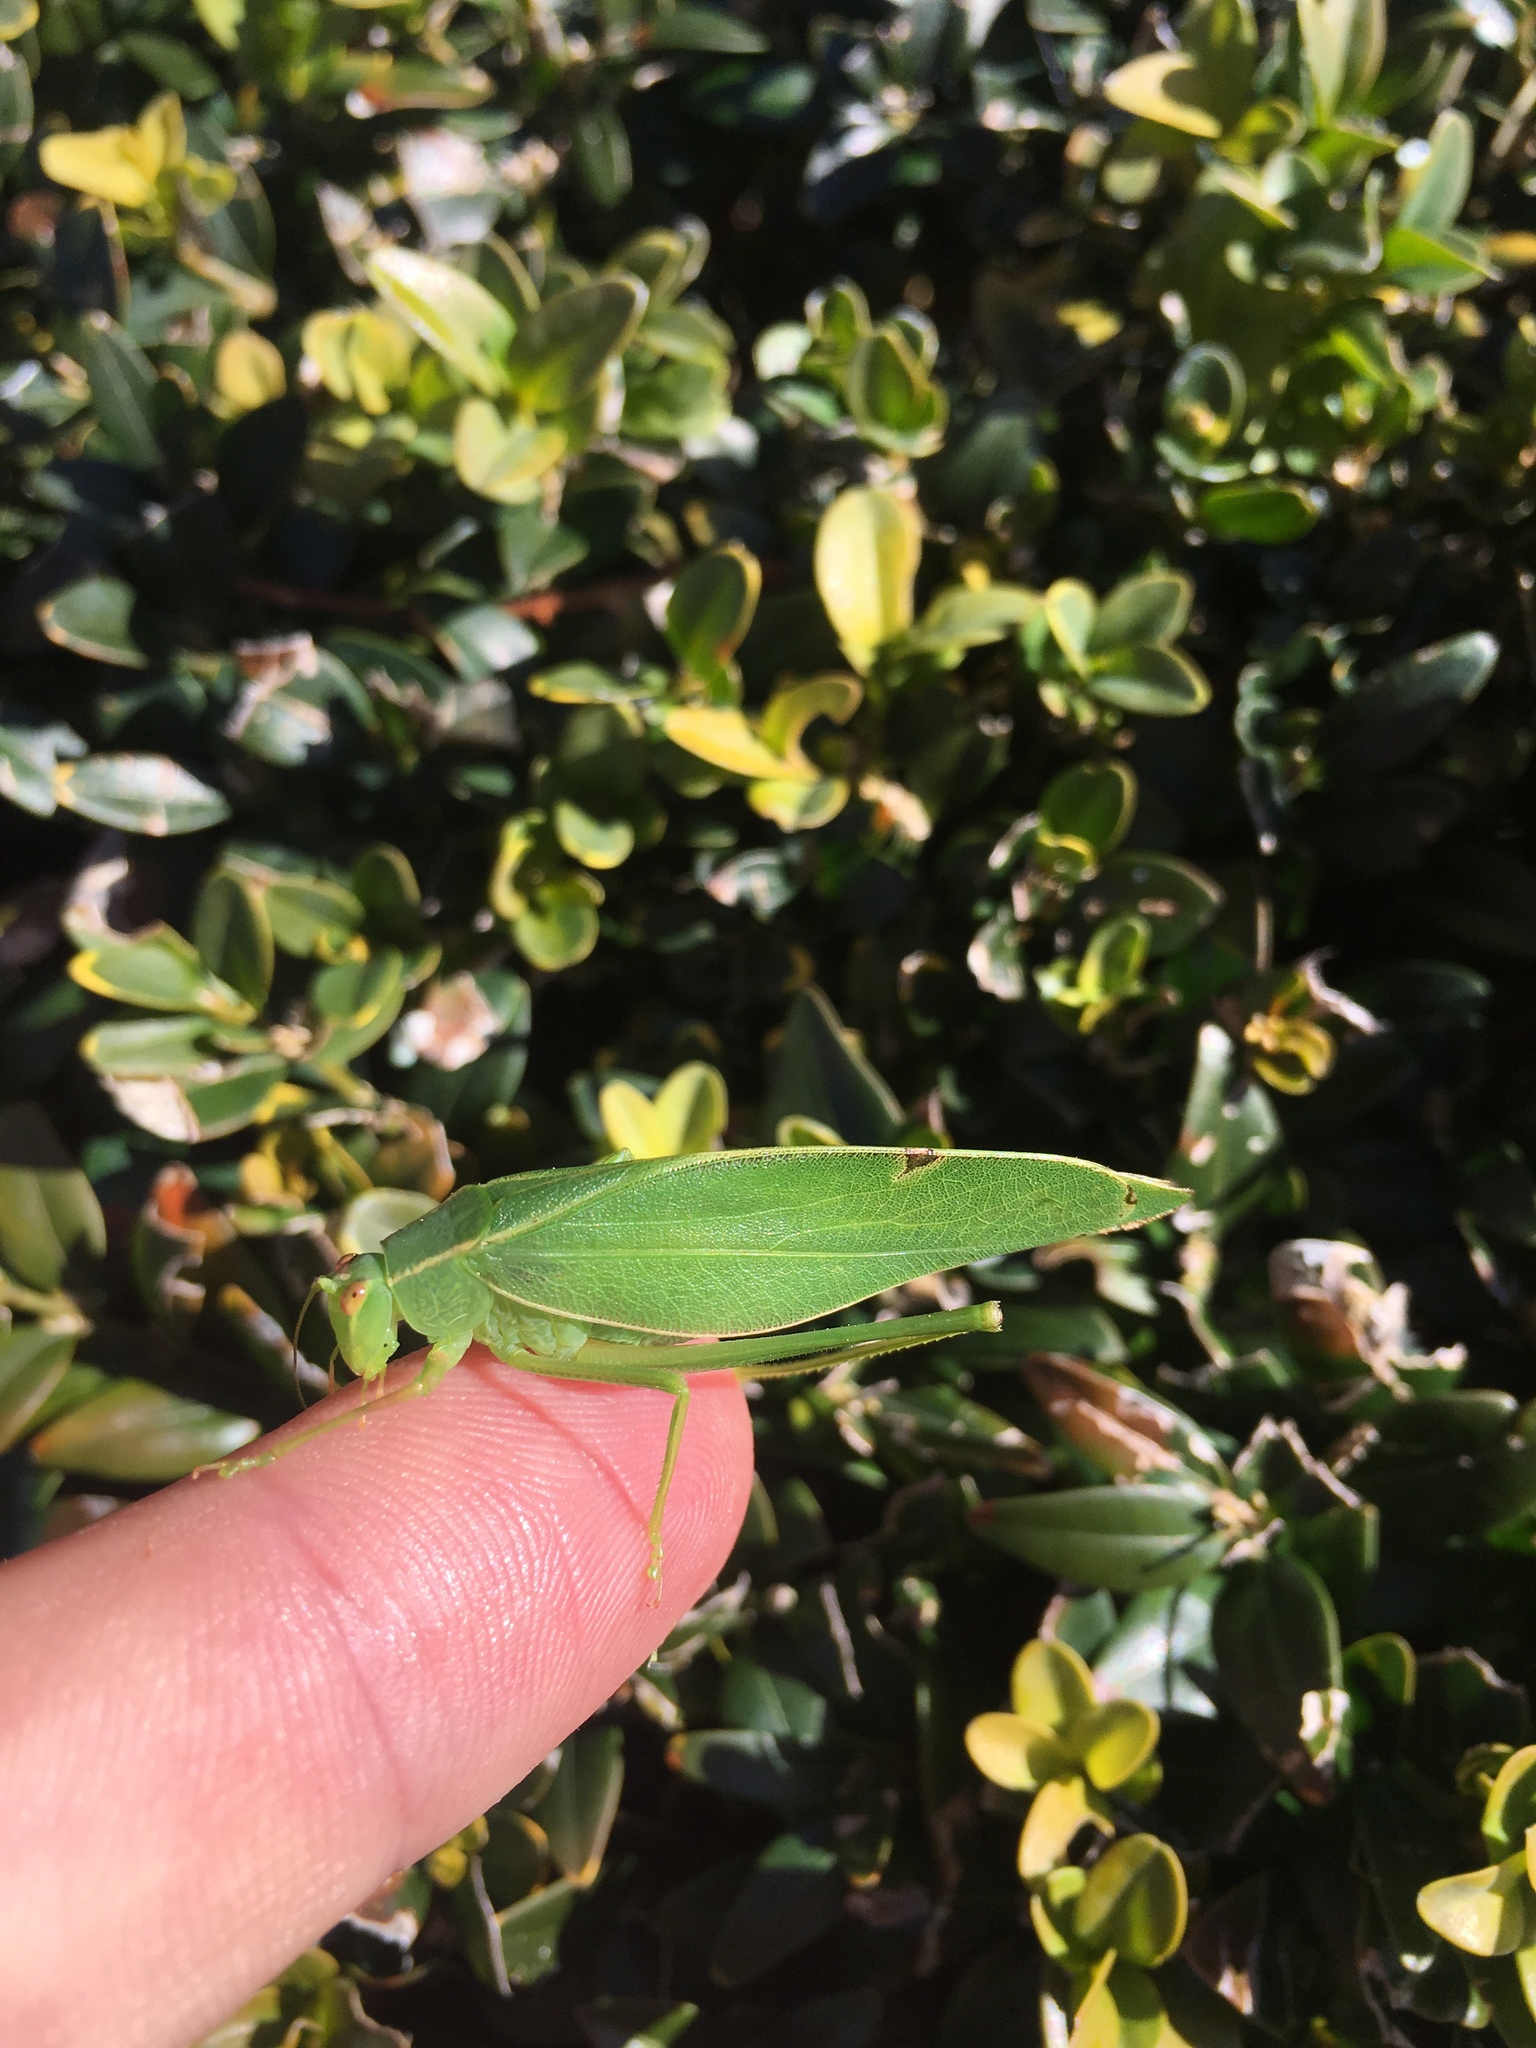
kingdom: Animalia
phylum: Arthropoda
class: Insecta
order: Orthoptera
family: Tettigoniidae
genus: Caedicia
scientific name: Caedicia simplex
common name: Common garden katydid
